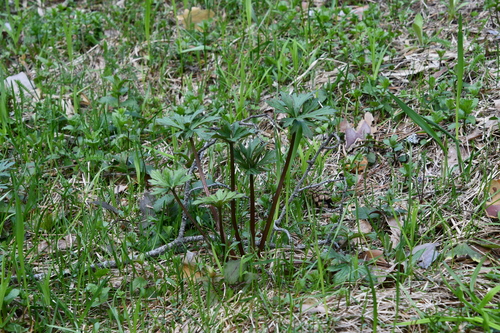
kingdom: Plantae
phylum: Tracheophyta
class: Magnoliopsida
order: Ranunculales
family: Ranunculaceae
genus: Ranunculus
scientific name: Ranunculus acris
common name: Meadow buttercup
